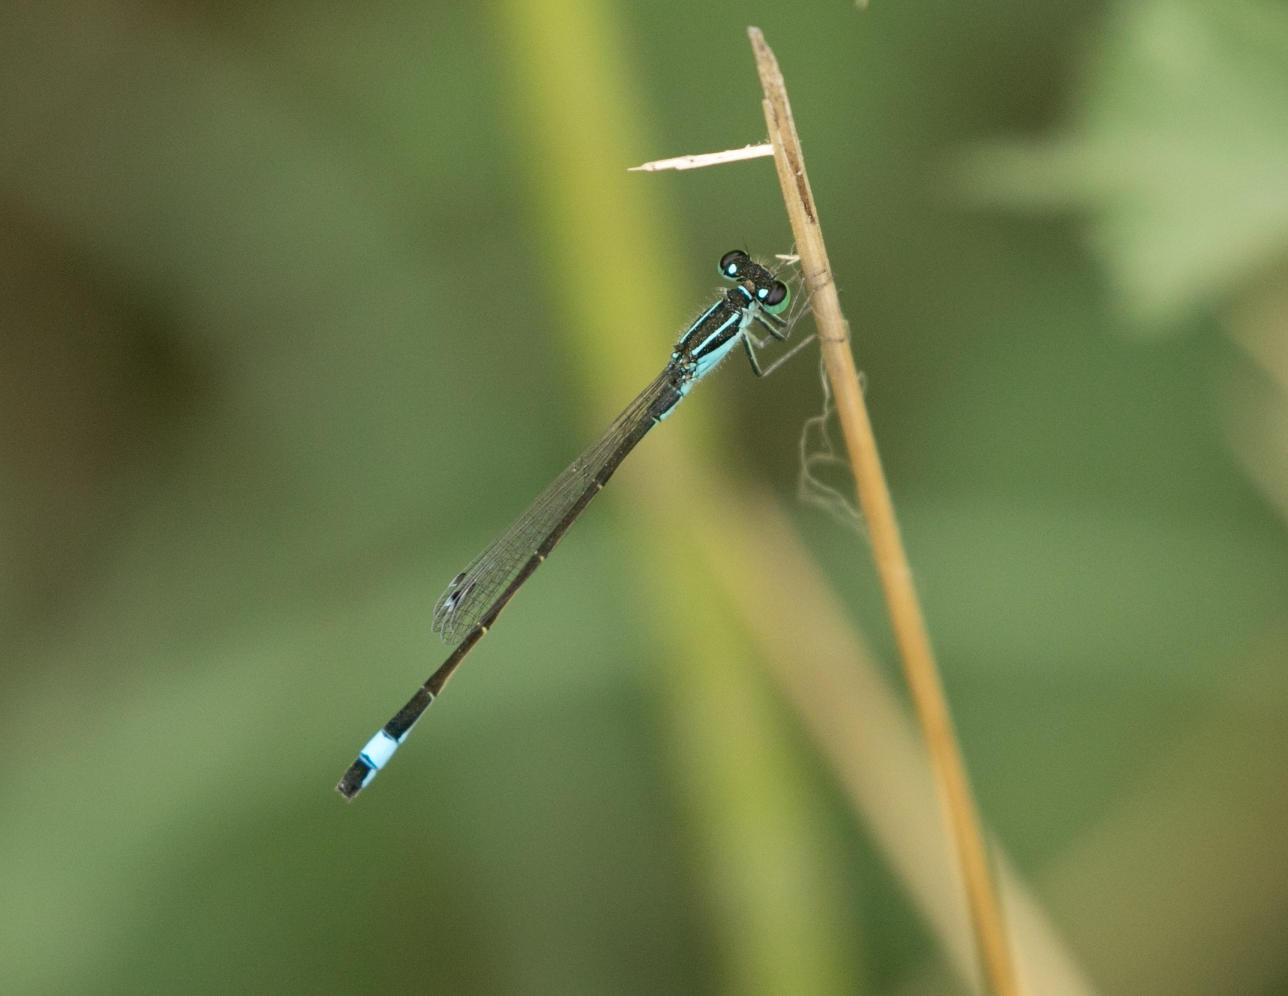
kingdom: Animalia
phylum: Arthropoda
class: Insecta
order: Odonata
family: Coenagrionidae
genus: Ischnura
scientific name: Ischnura elegans
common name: Blue-tailed damselfly
